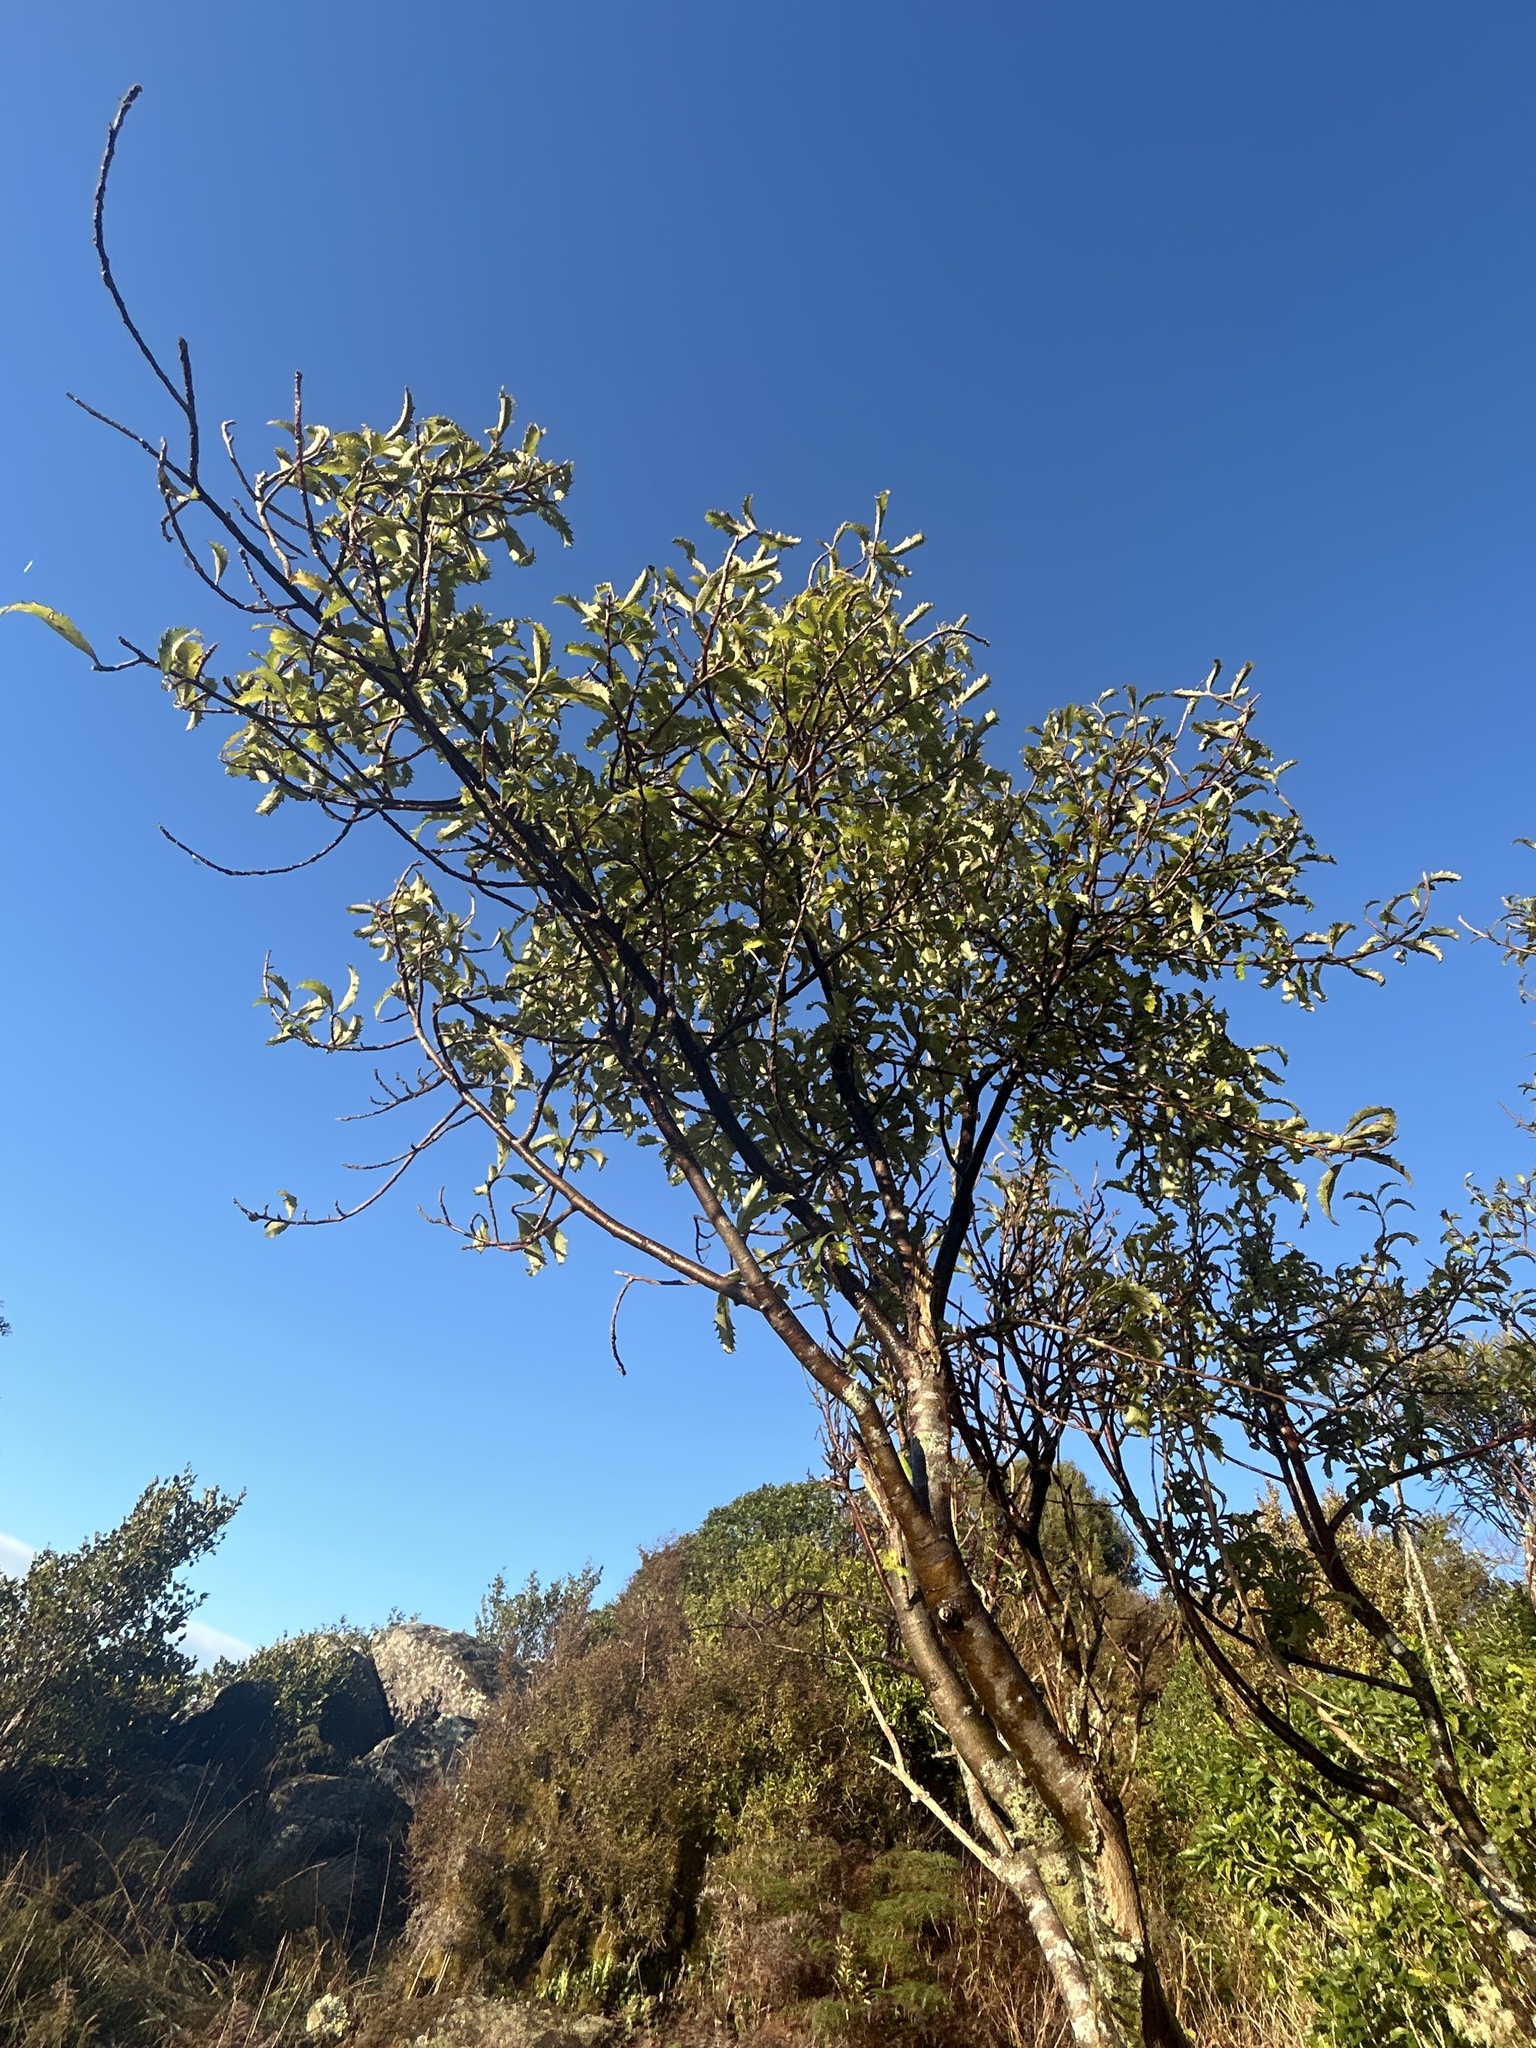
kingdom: Plantae
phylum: Tracheophyta
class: Magnoliopsida
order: Malvales
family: Malvaceae
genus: Hoheria
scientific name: Hoheria angustifolia
